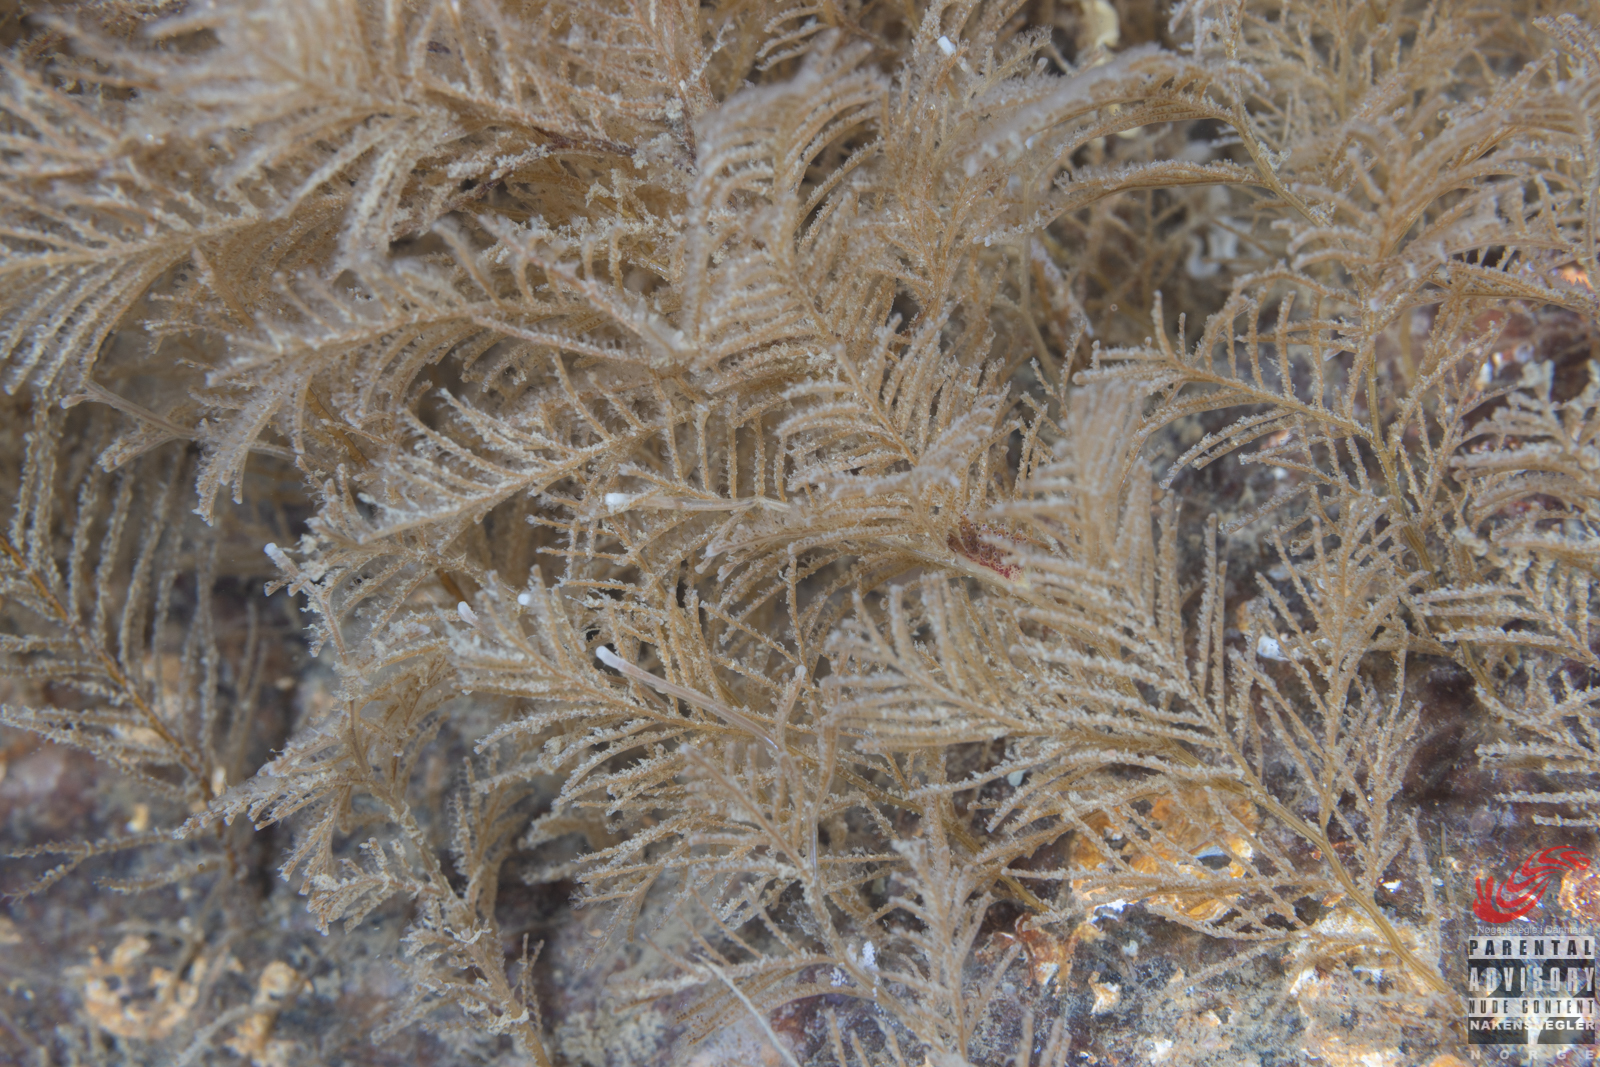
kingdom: Animalia
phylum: Mollusca
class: Gastropoda
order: Nudibranchia
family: Dotidae
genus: Doto
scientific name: Doto hydrallmaniae
